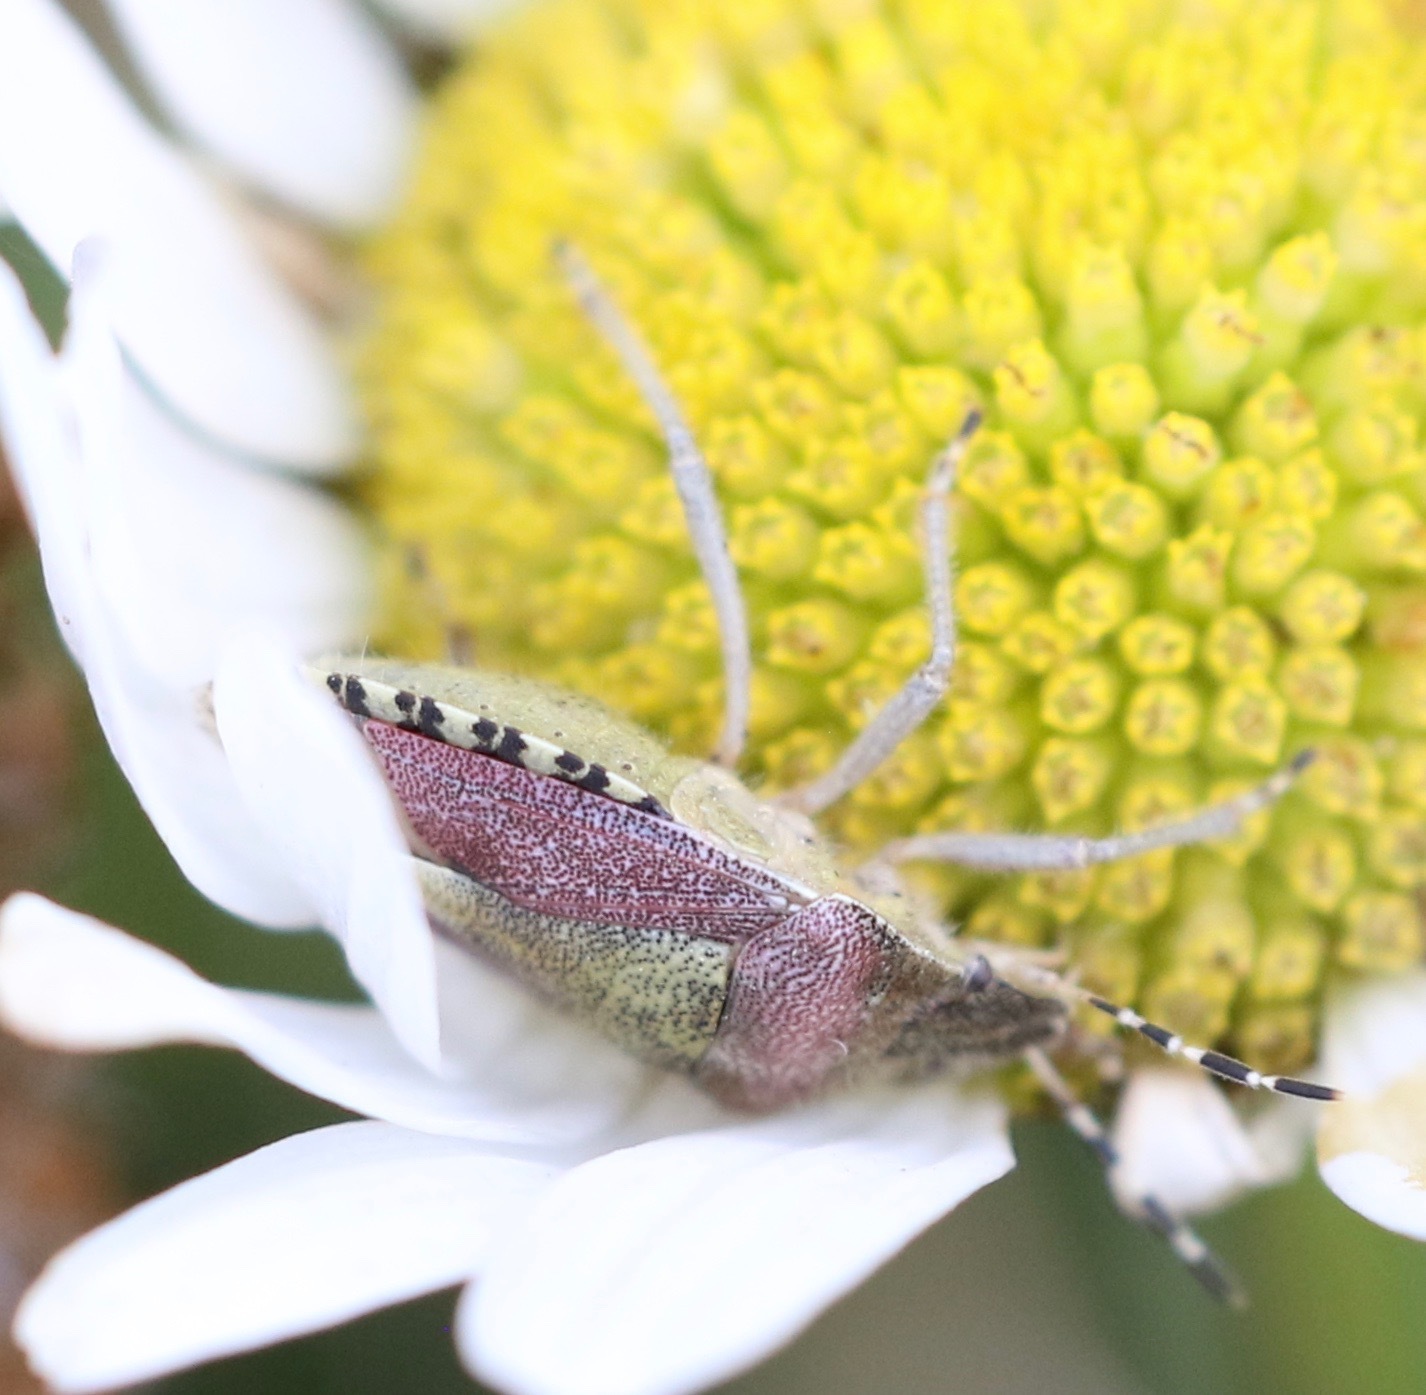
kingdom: Animalia
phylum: Arthropoda
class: Insecta
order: Hemiptera
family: Pentatomidae
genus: Dolycoris
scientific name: Dolycoris baccarum
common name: Sloe bug
